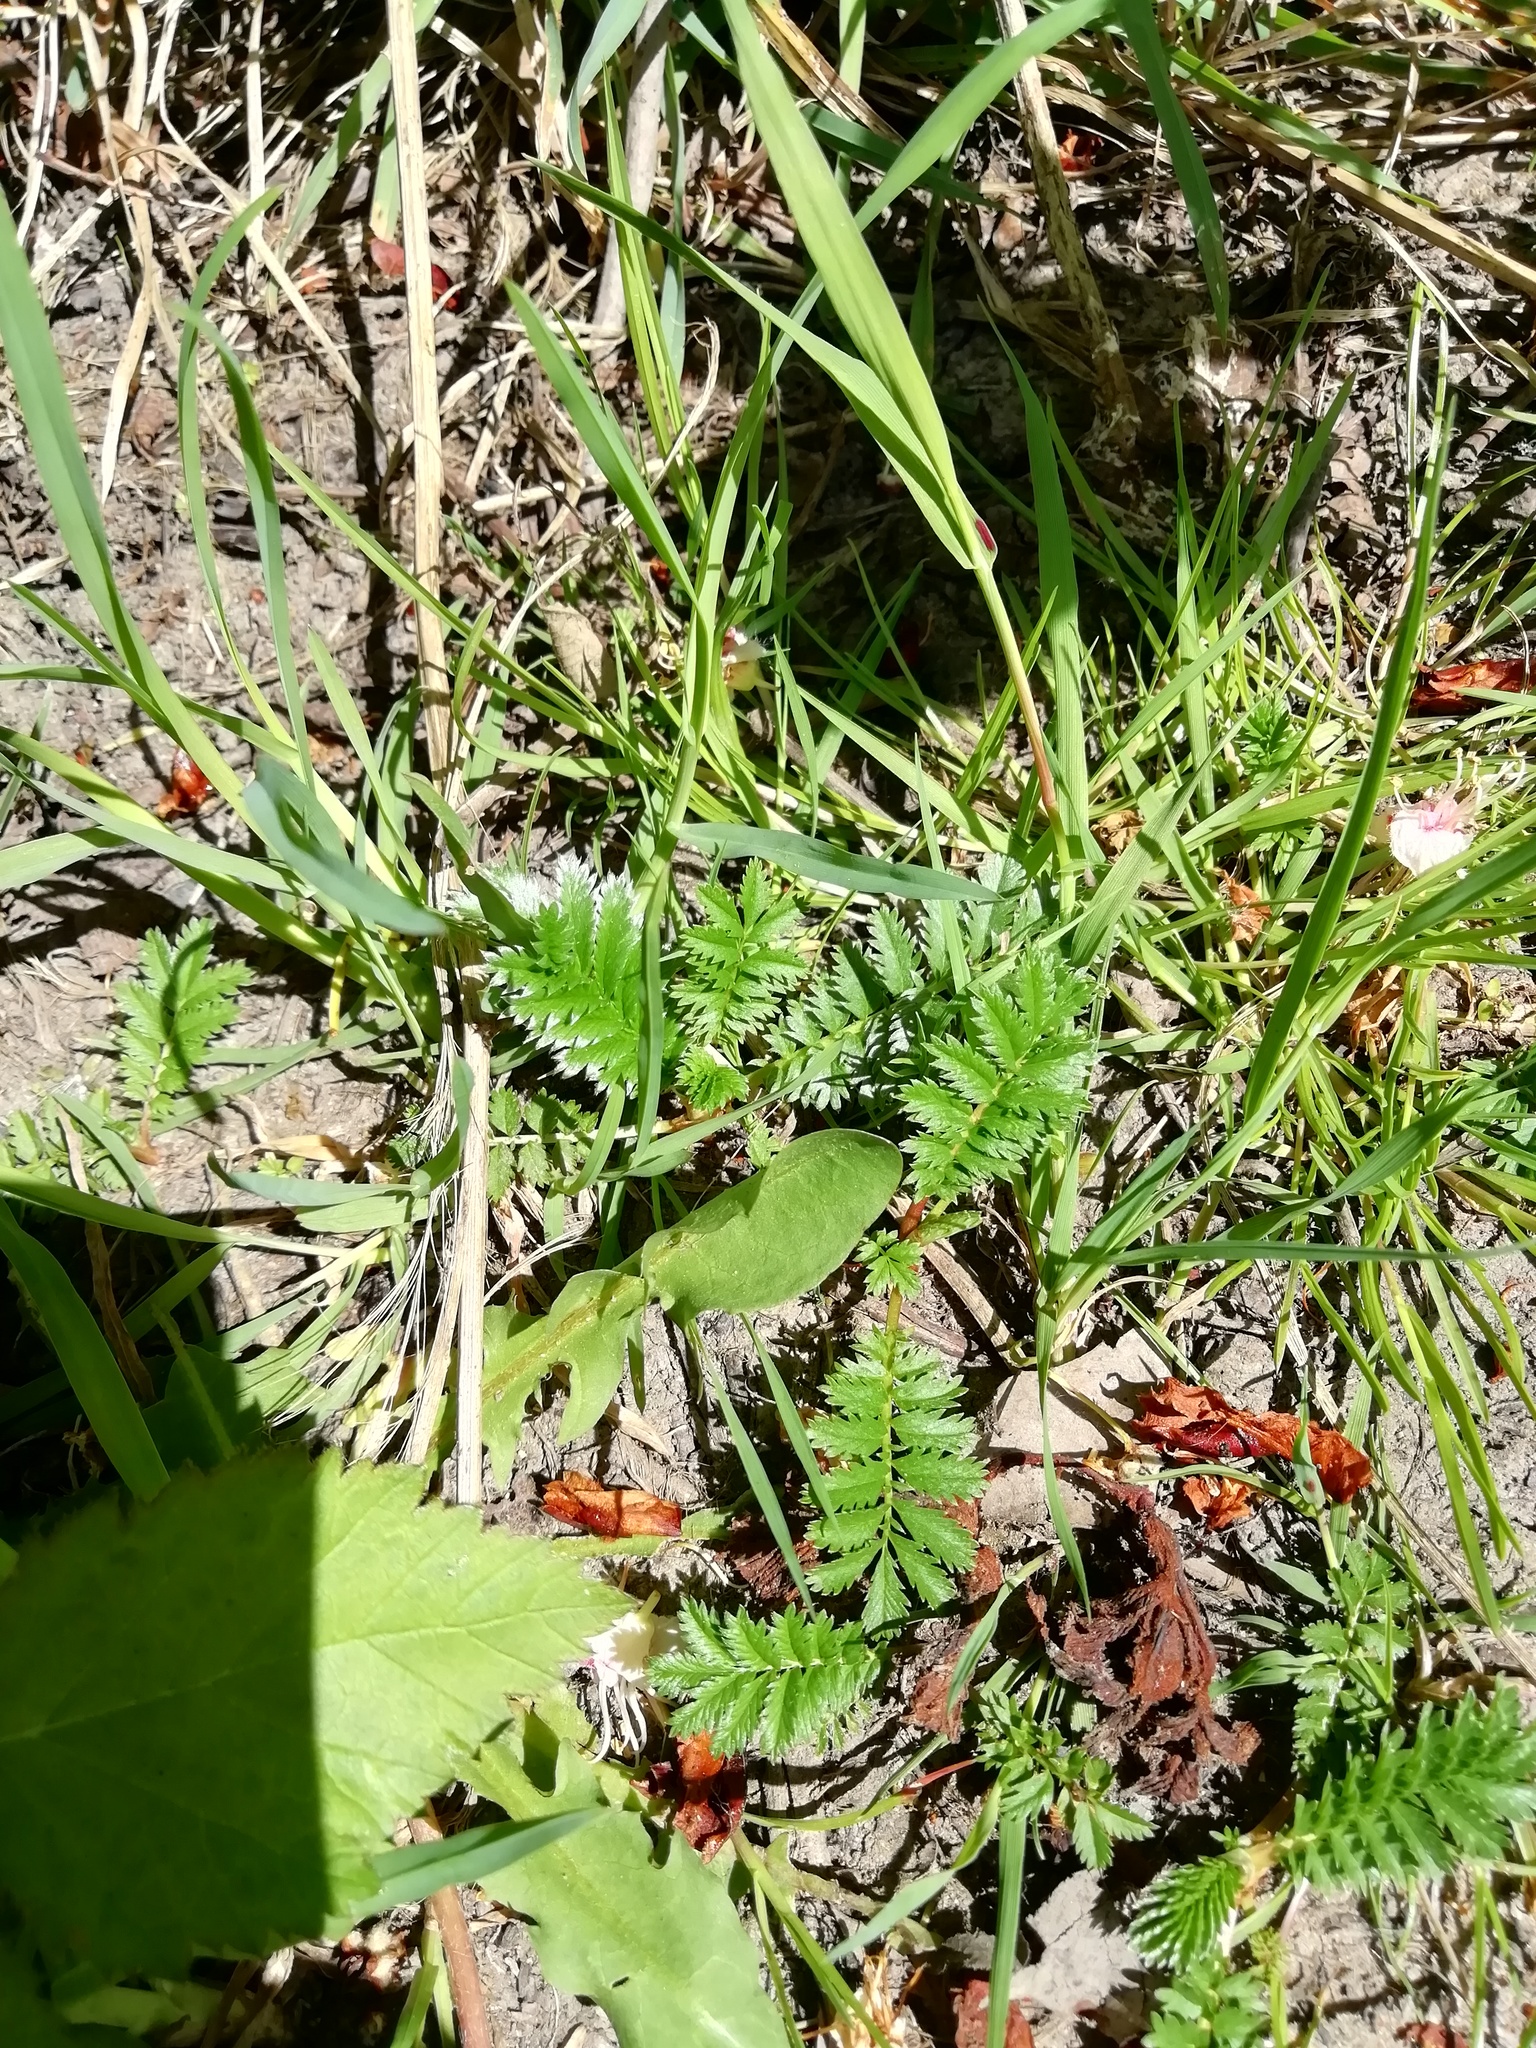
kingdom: Plantae
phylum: Tracheophyta
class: Magnoliopsida
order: Rosales
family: Rosaceae
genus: Argentina
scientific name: Argentina anserina
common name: Common silverweed
